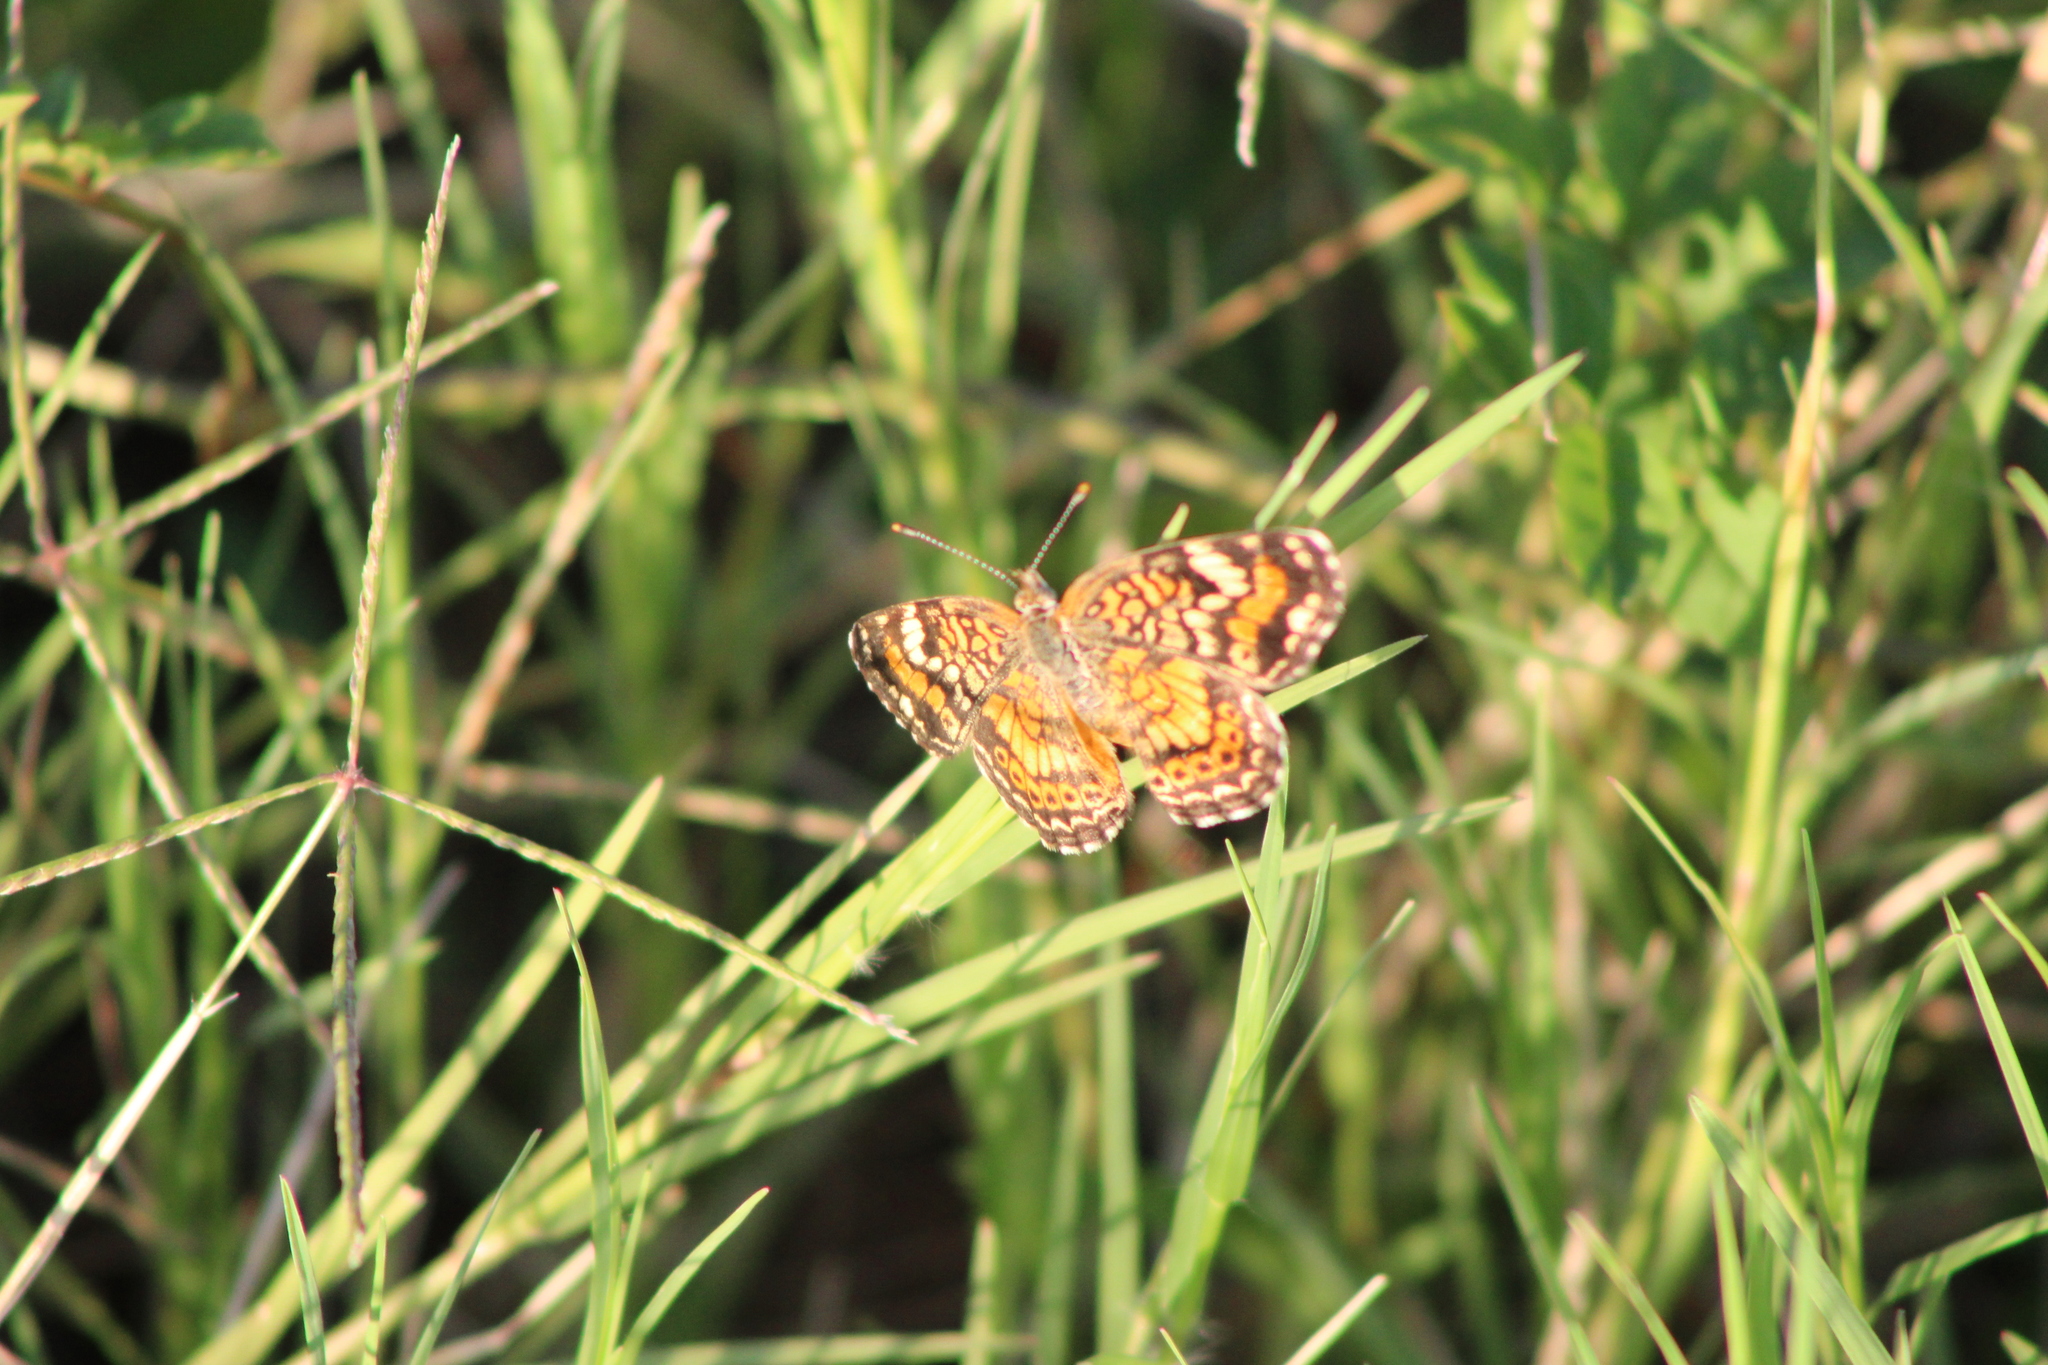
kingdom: Animalia
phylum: Arthropoda
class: Insecta
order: Lepidoptera
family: Nymphalidae
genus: Phyciodes
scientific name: Phyciodes phaon
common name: Phaon crescent
